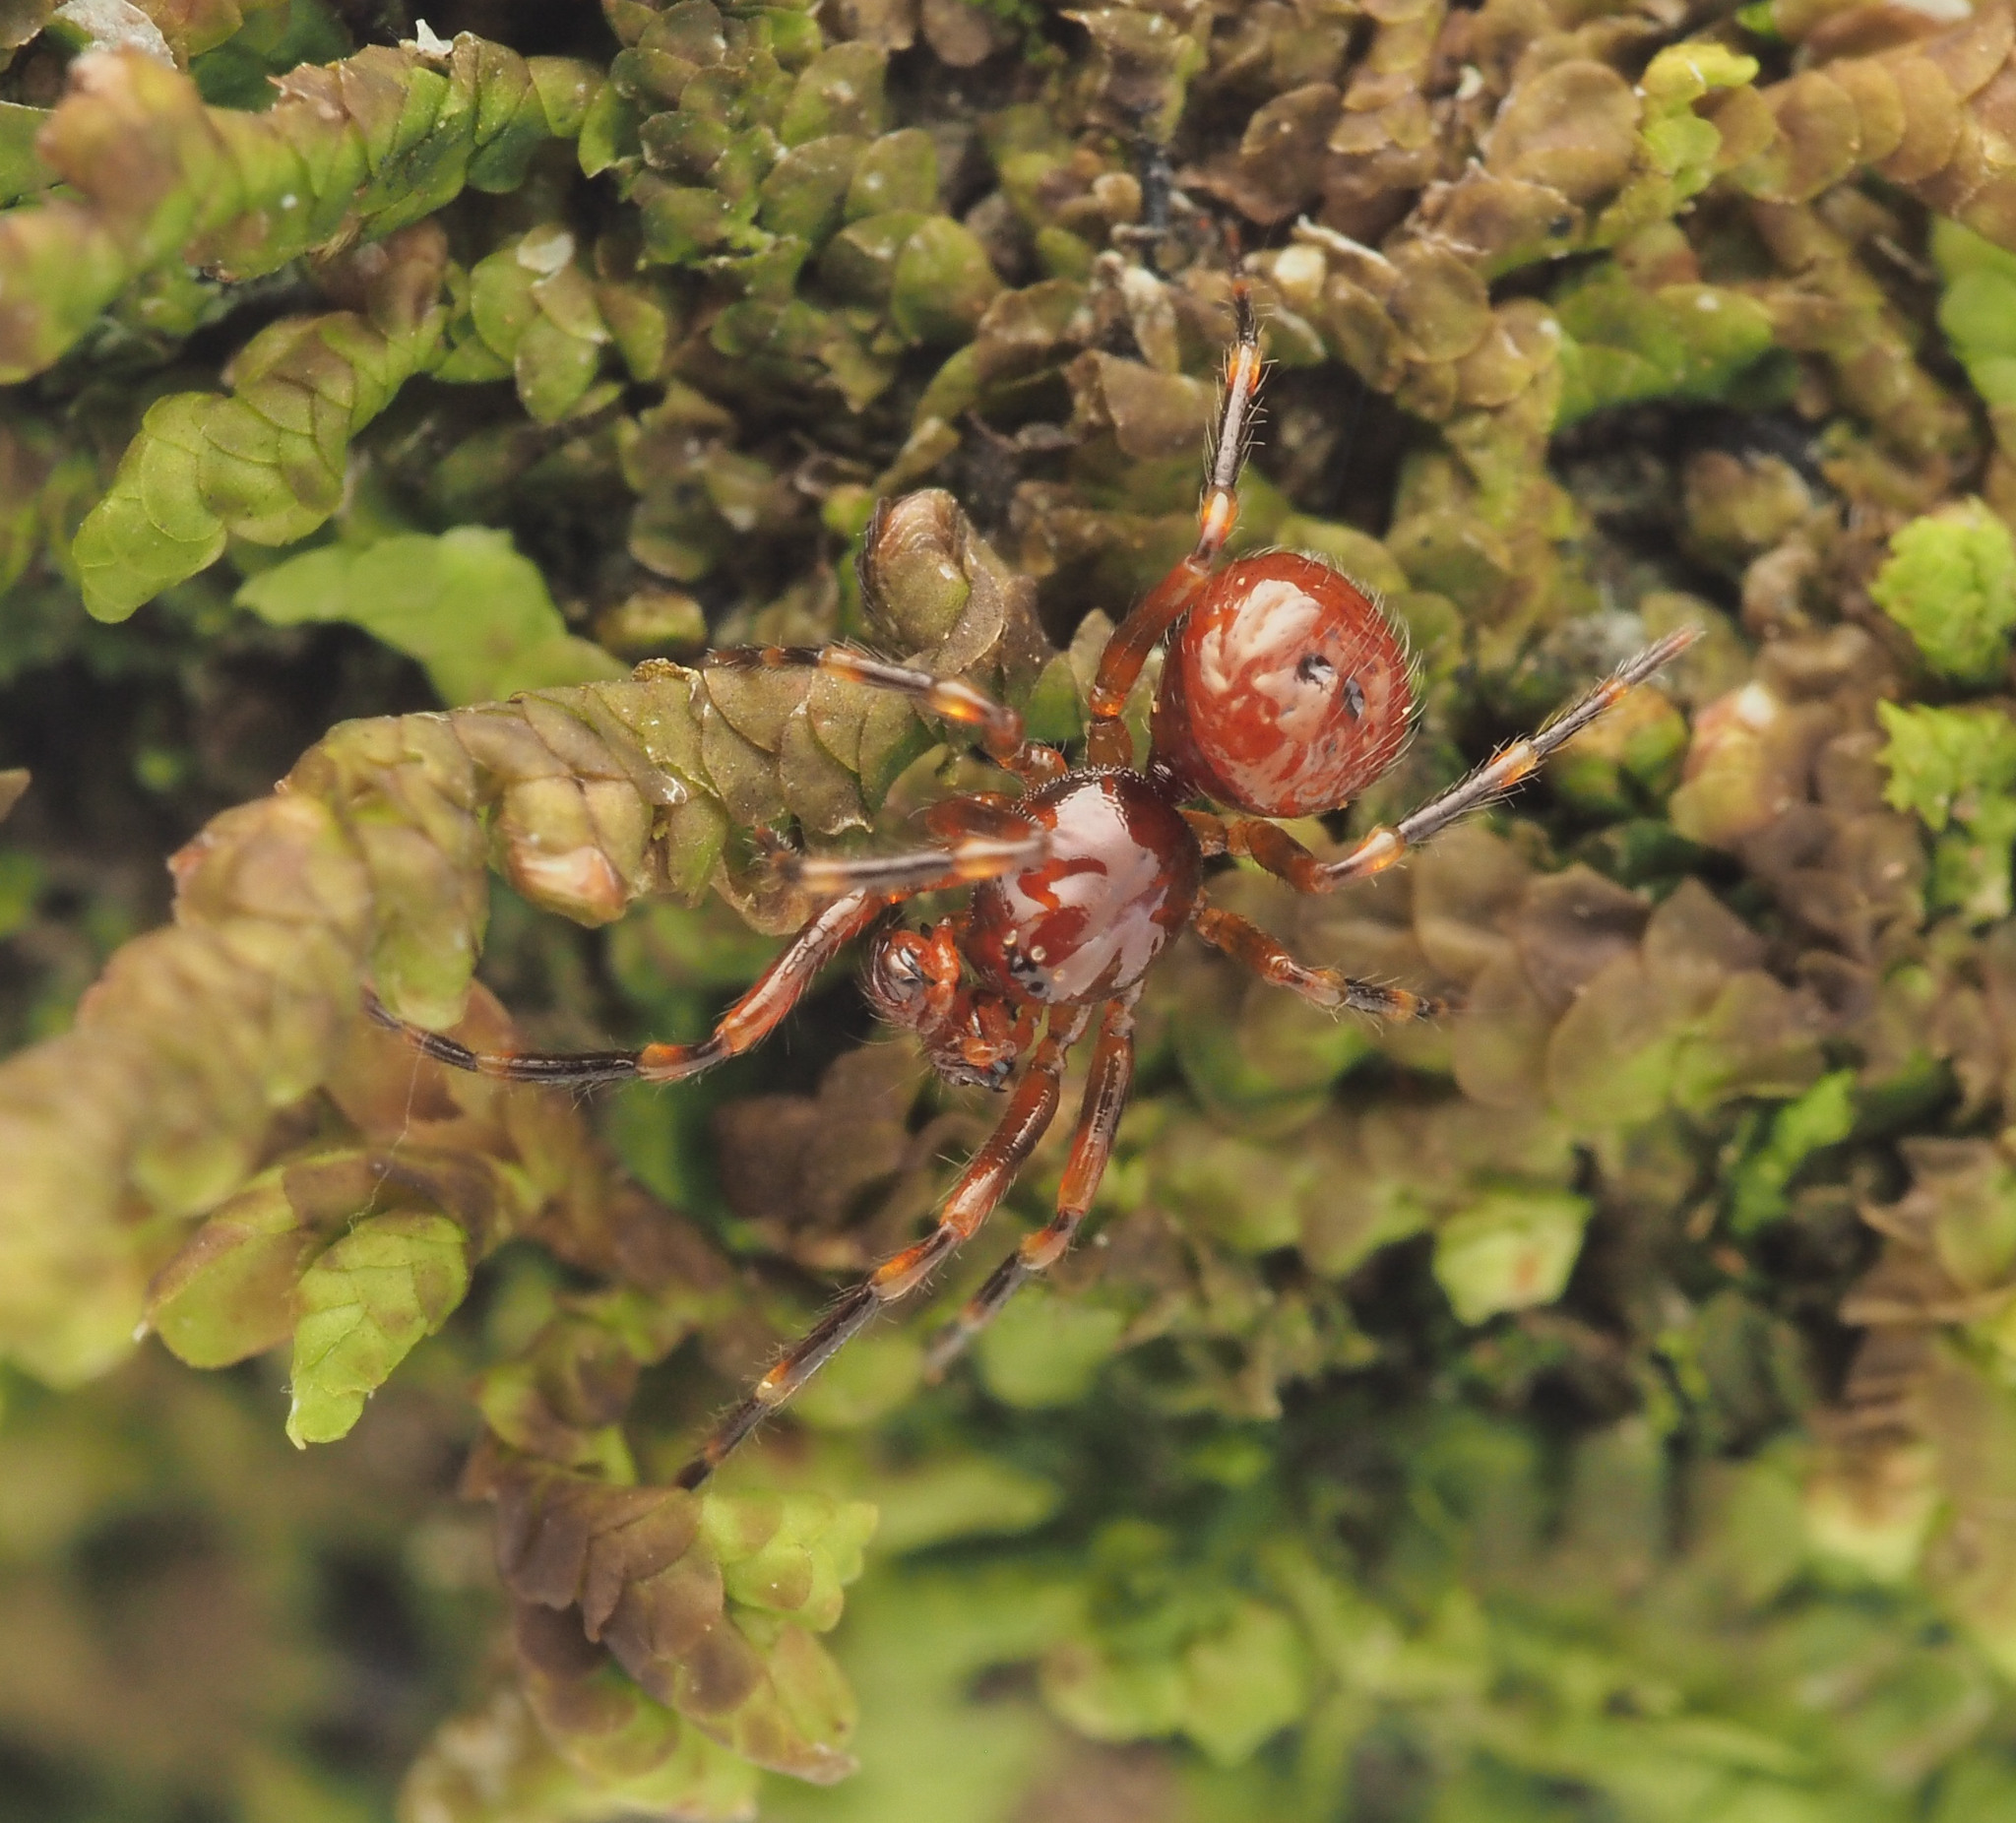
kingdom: Animalia
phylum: Arthropoda
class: Arachnida
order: Araneae
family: Malkaridae
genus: Malkara
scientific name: Malkara
